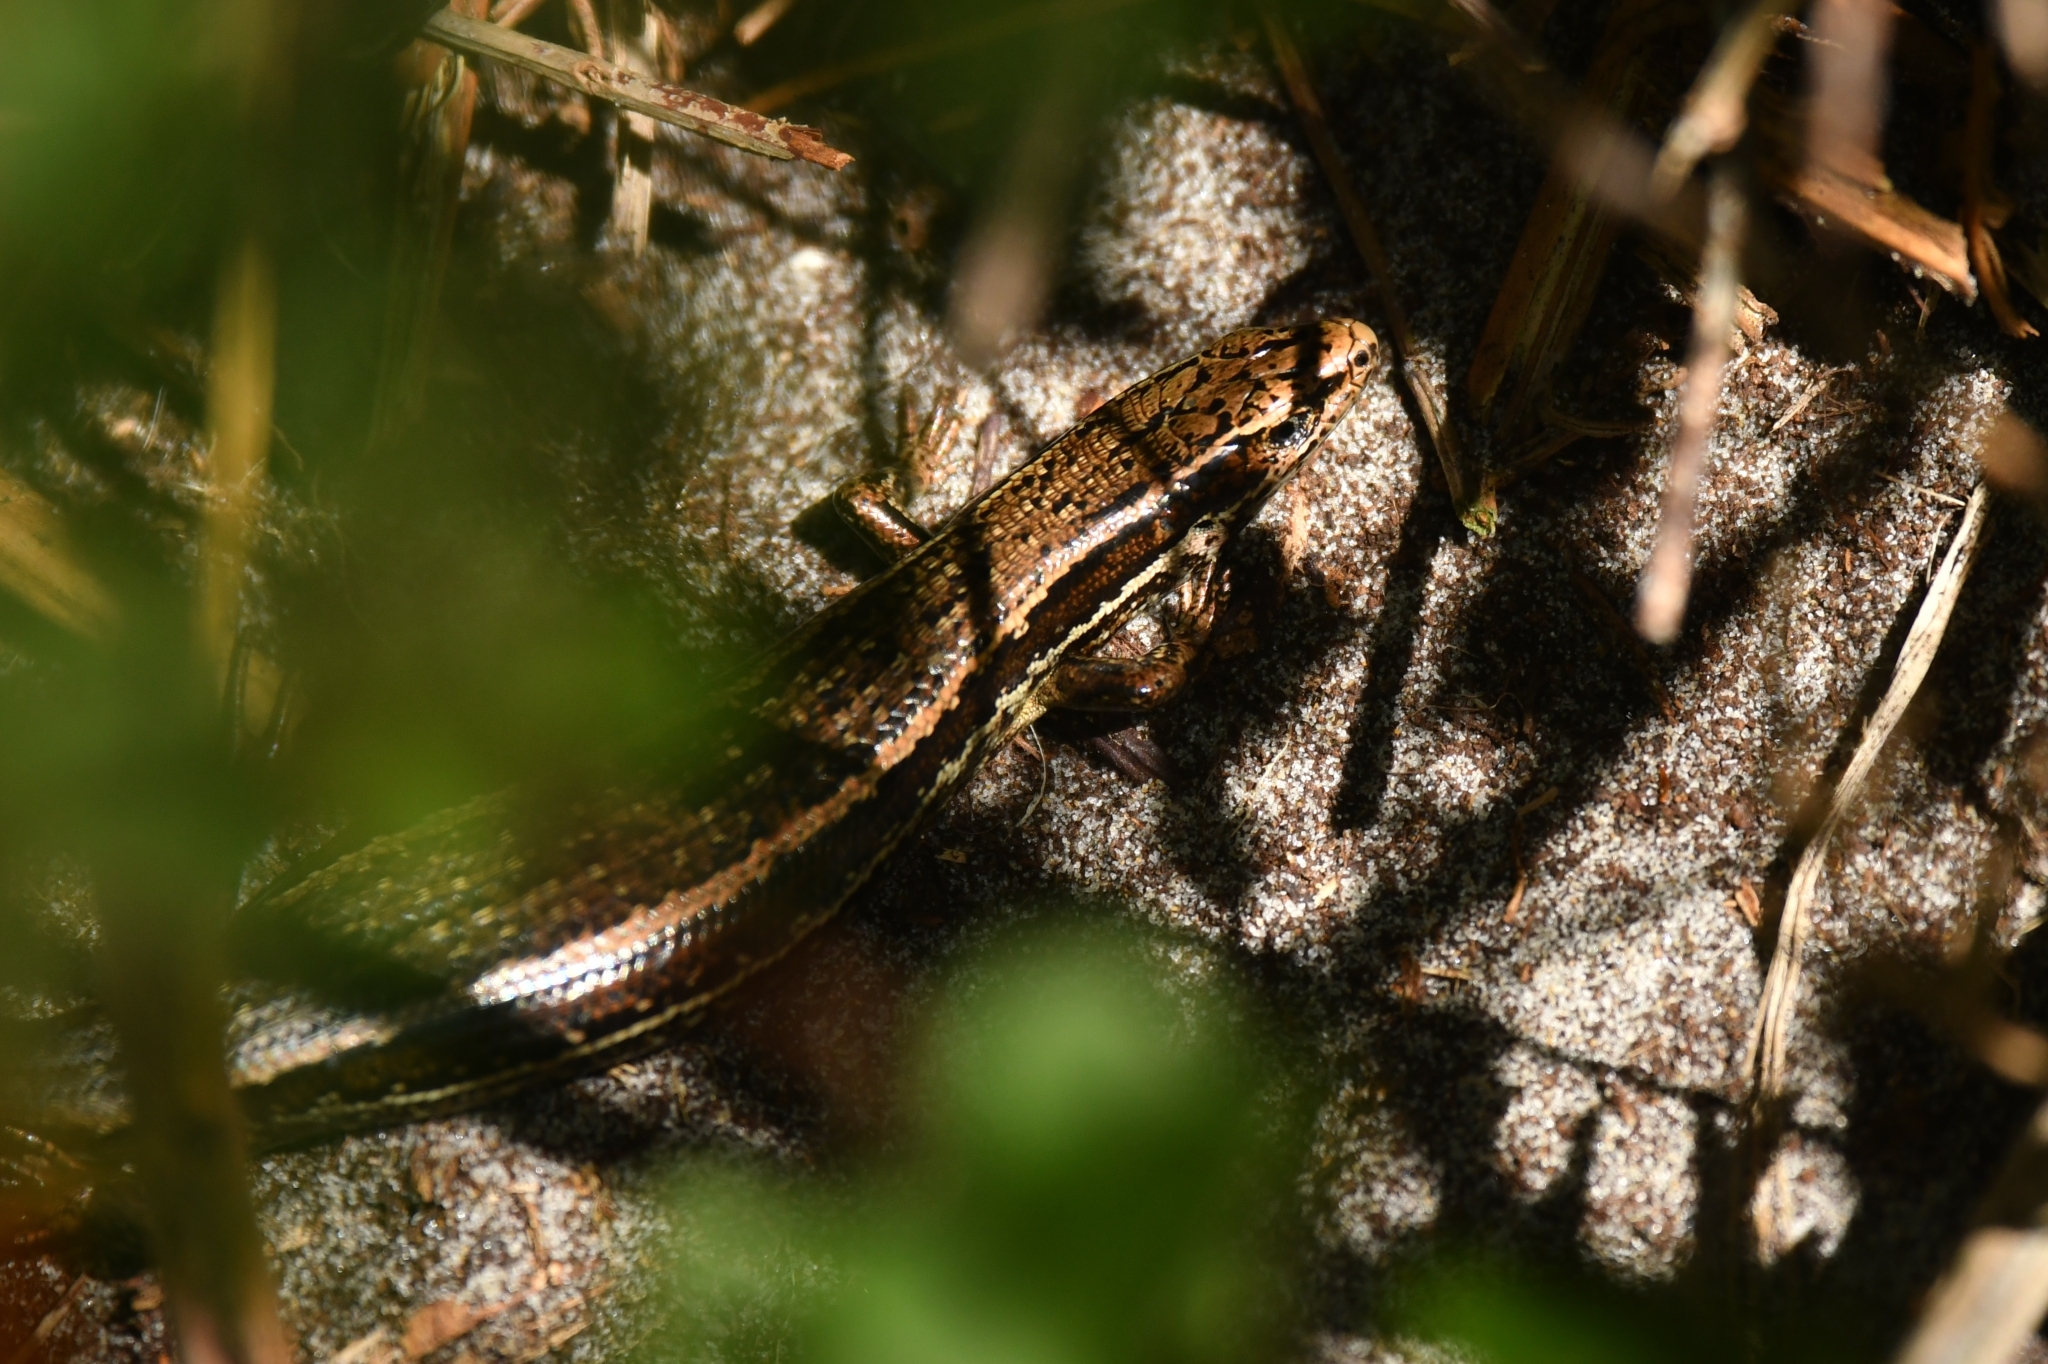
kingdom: Animalia
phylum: Chordata
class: Squamata
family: Scincidae
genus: Oligosoma
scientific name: Oligosoma inconspicuum
